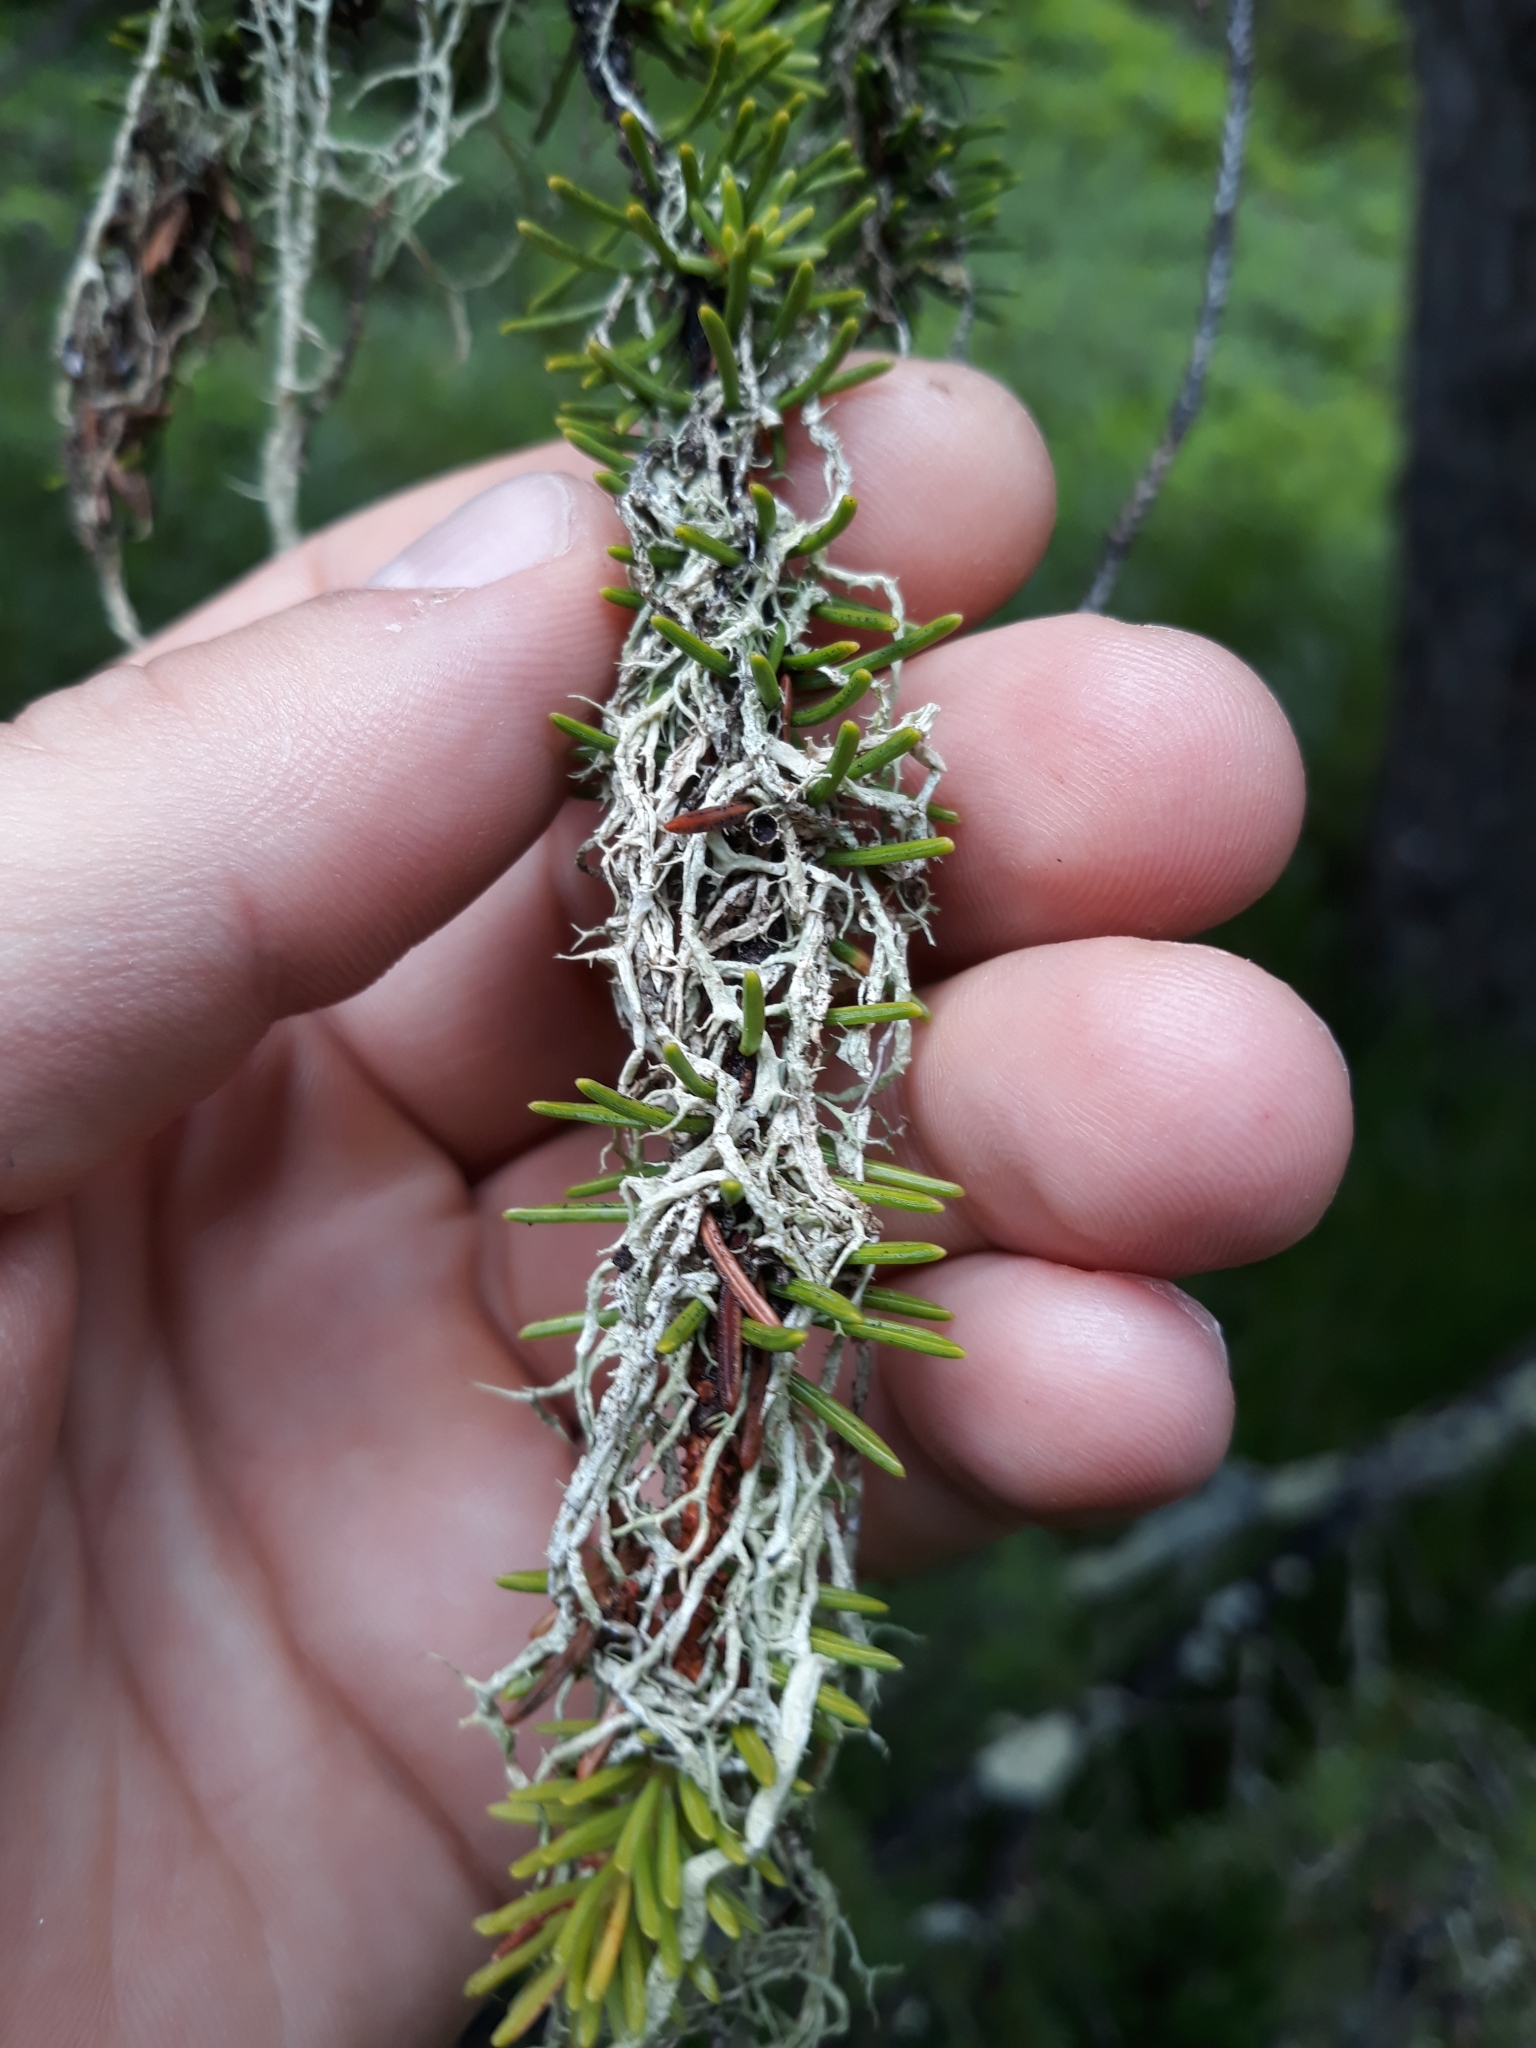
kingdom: Fungi
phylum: Ascomycota
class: Lecanoromycetes
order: Lecanorales
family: Parmeliaceae
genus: Evernia
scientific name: Evernia divaricata
